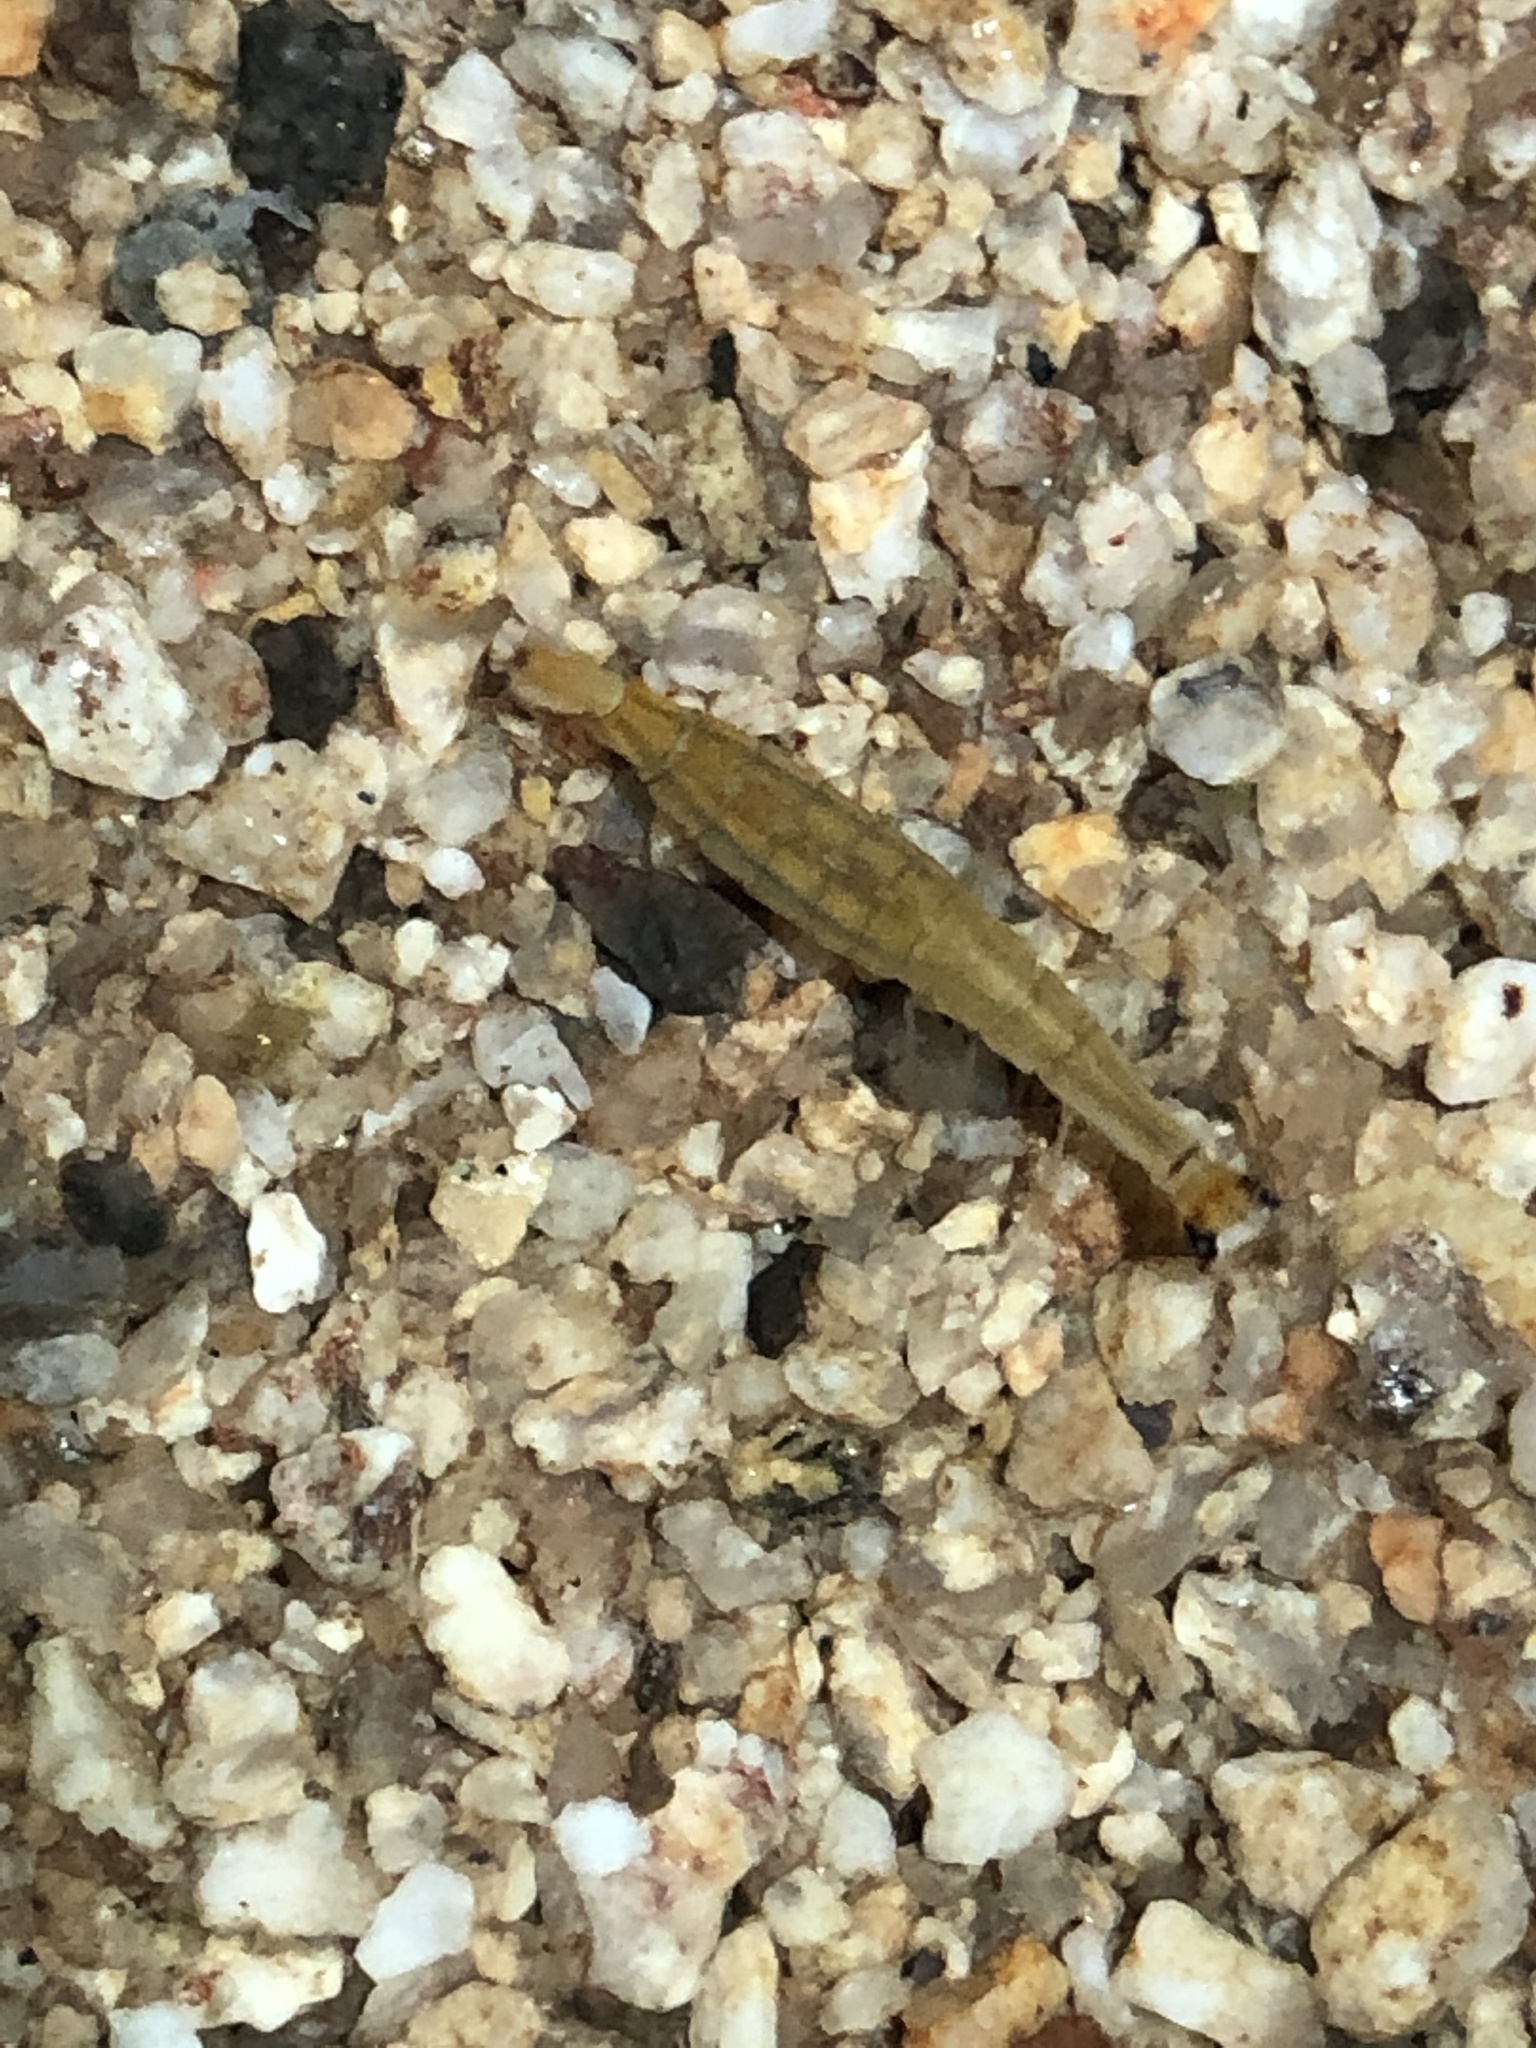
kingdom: Animalia
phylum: Arthropoda
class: Insecta
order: Coleoptera
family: Dytiscidae
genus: Thermonectus
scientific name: Thermonectus marmoratus
